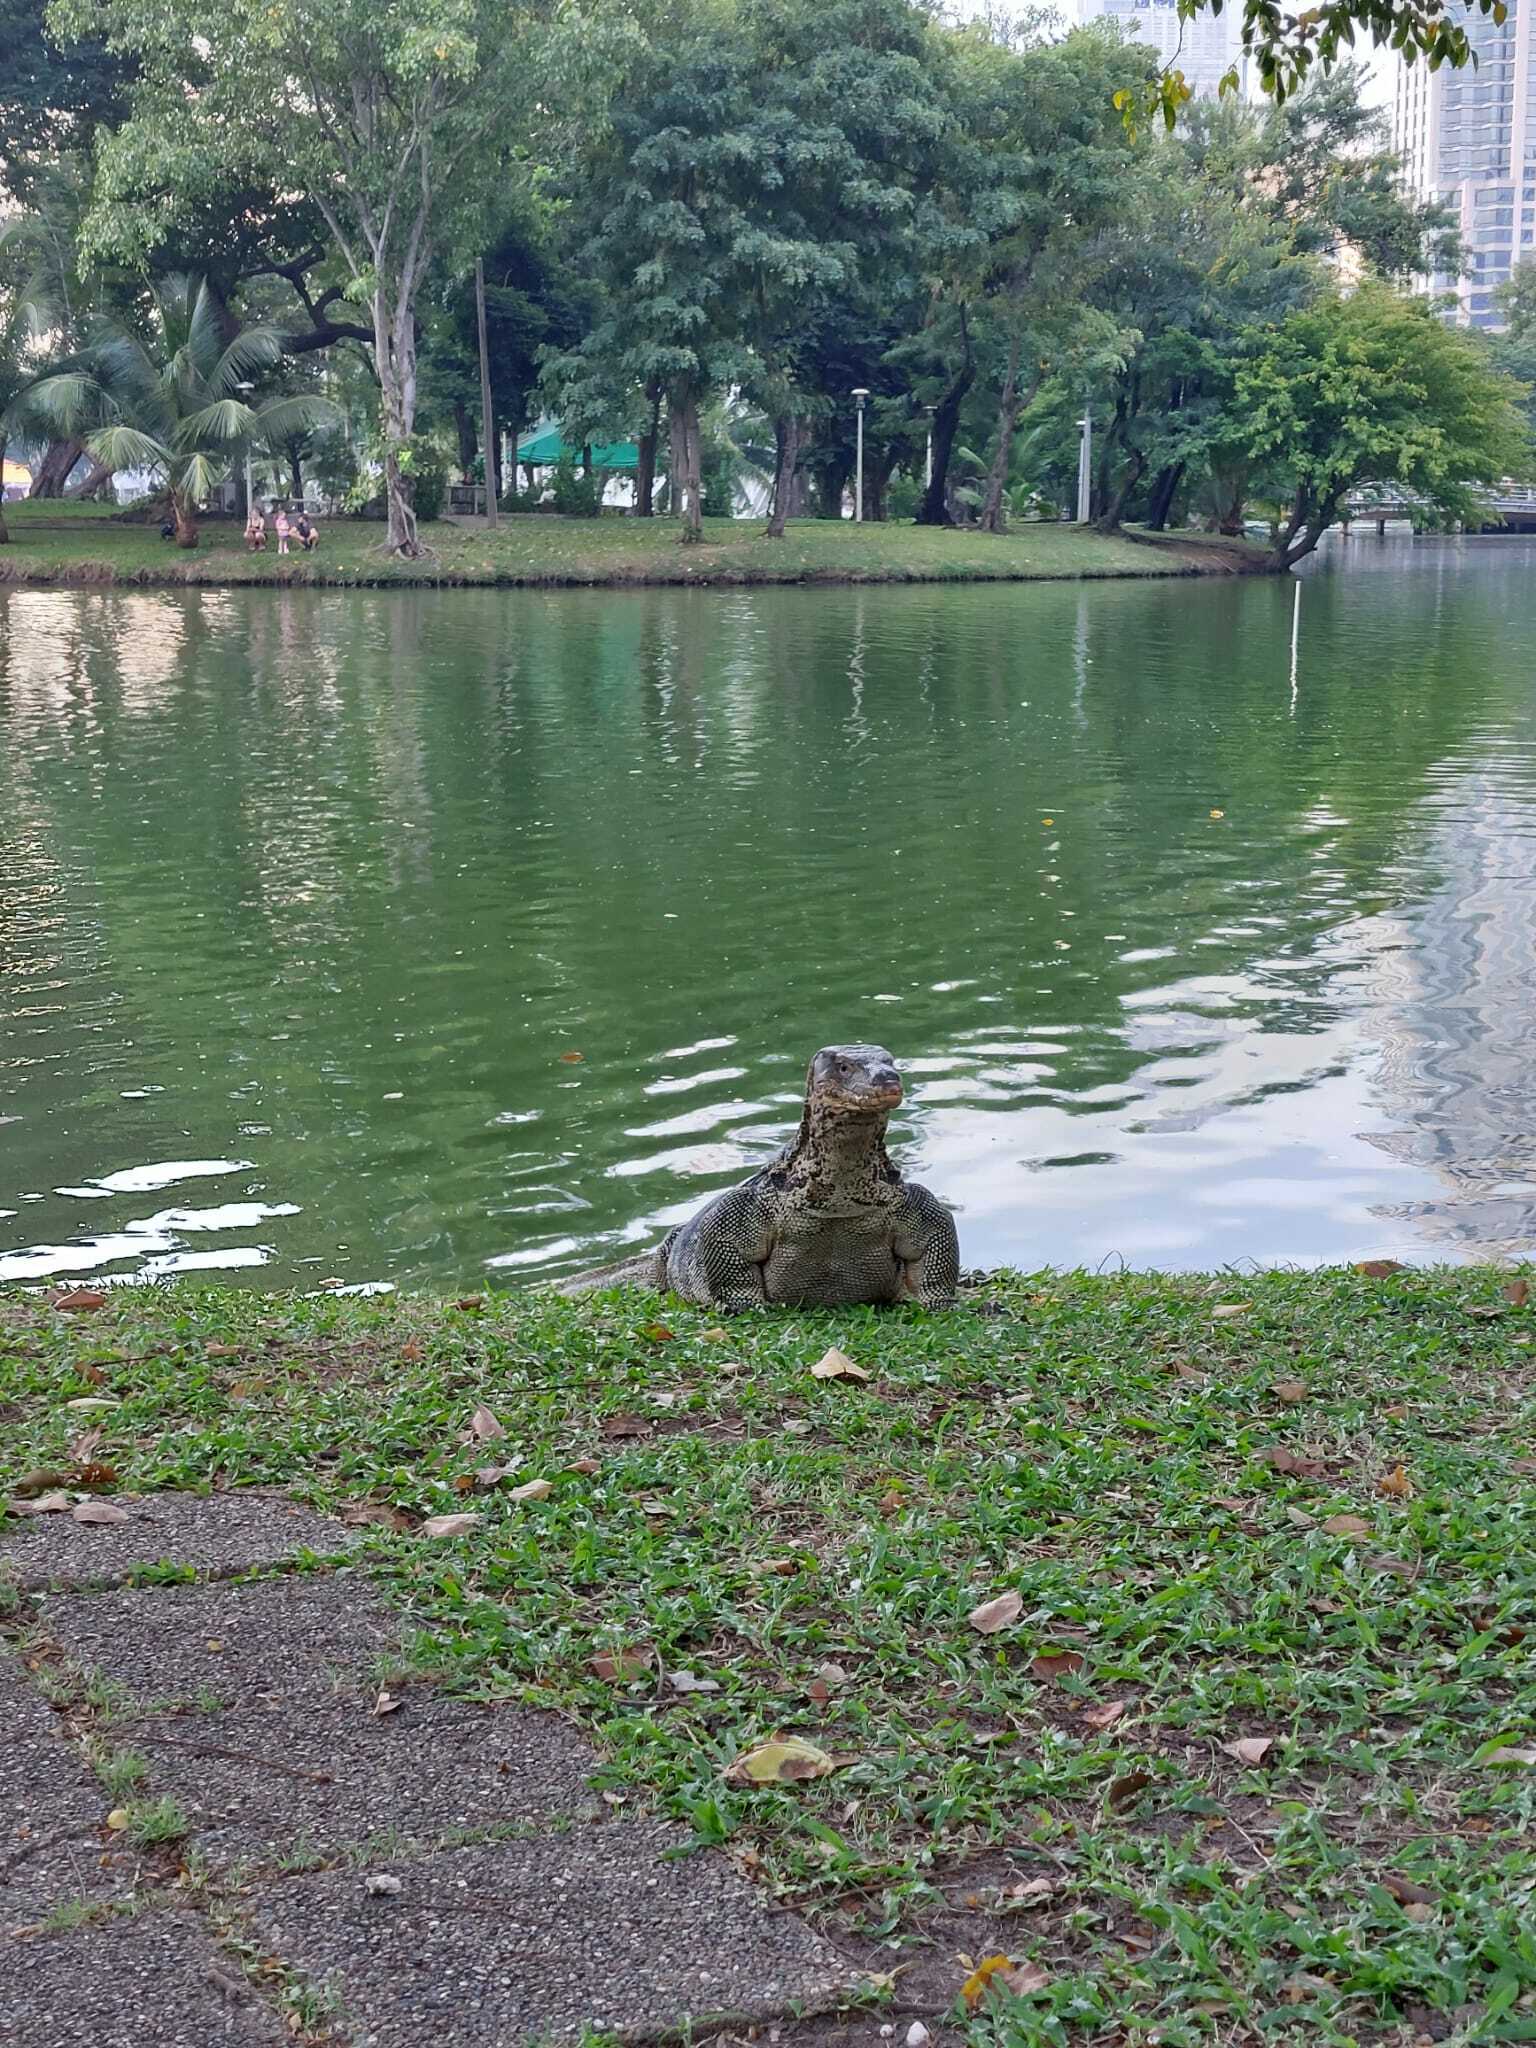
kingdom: Animalia
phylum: Chordata
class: Squamata
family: Varanidae
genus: Varanus
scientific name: Varanus salvator
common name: Common water monitor
